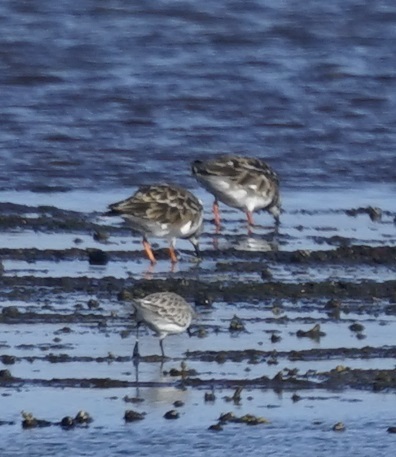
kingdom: Animalia
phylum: Chordata
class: Aves
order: Charadriiformes
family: Scolopacidae
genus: Arenaria
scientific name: Arenaria interpres
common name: Ruddy turnstone
